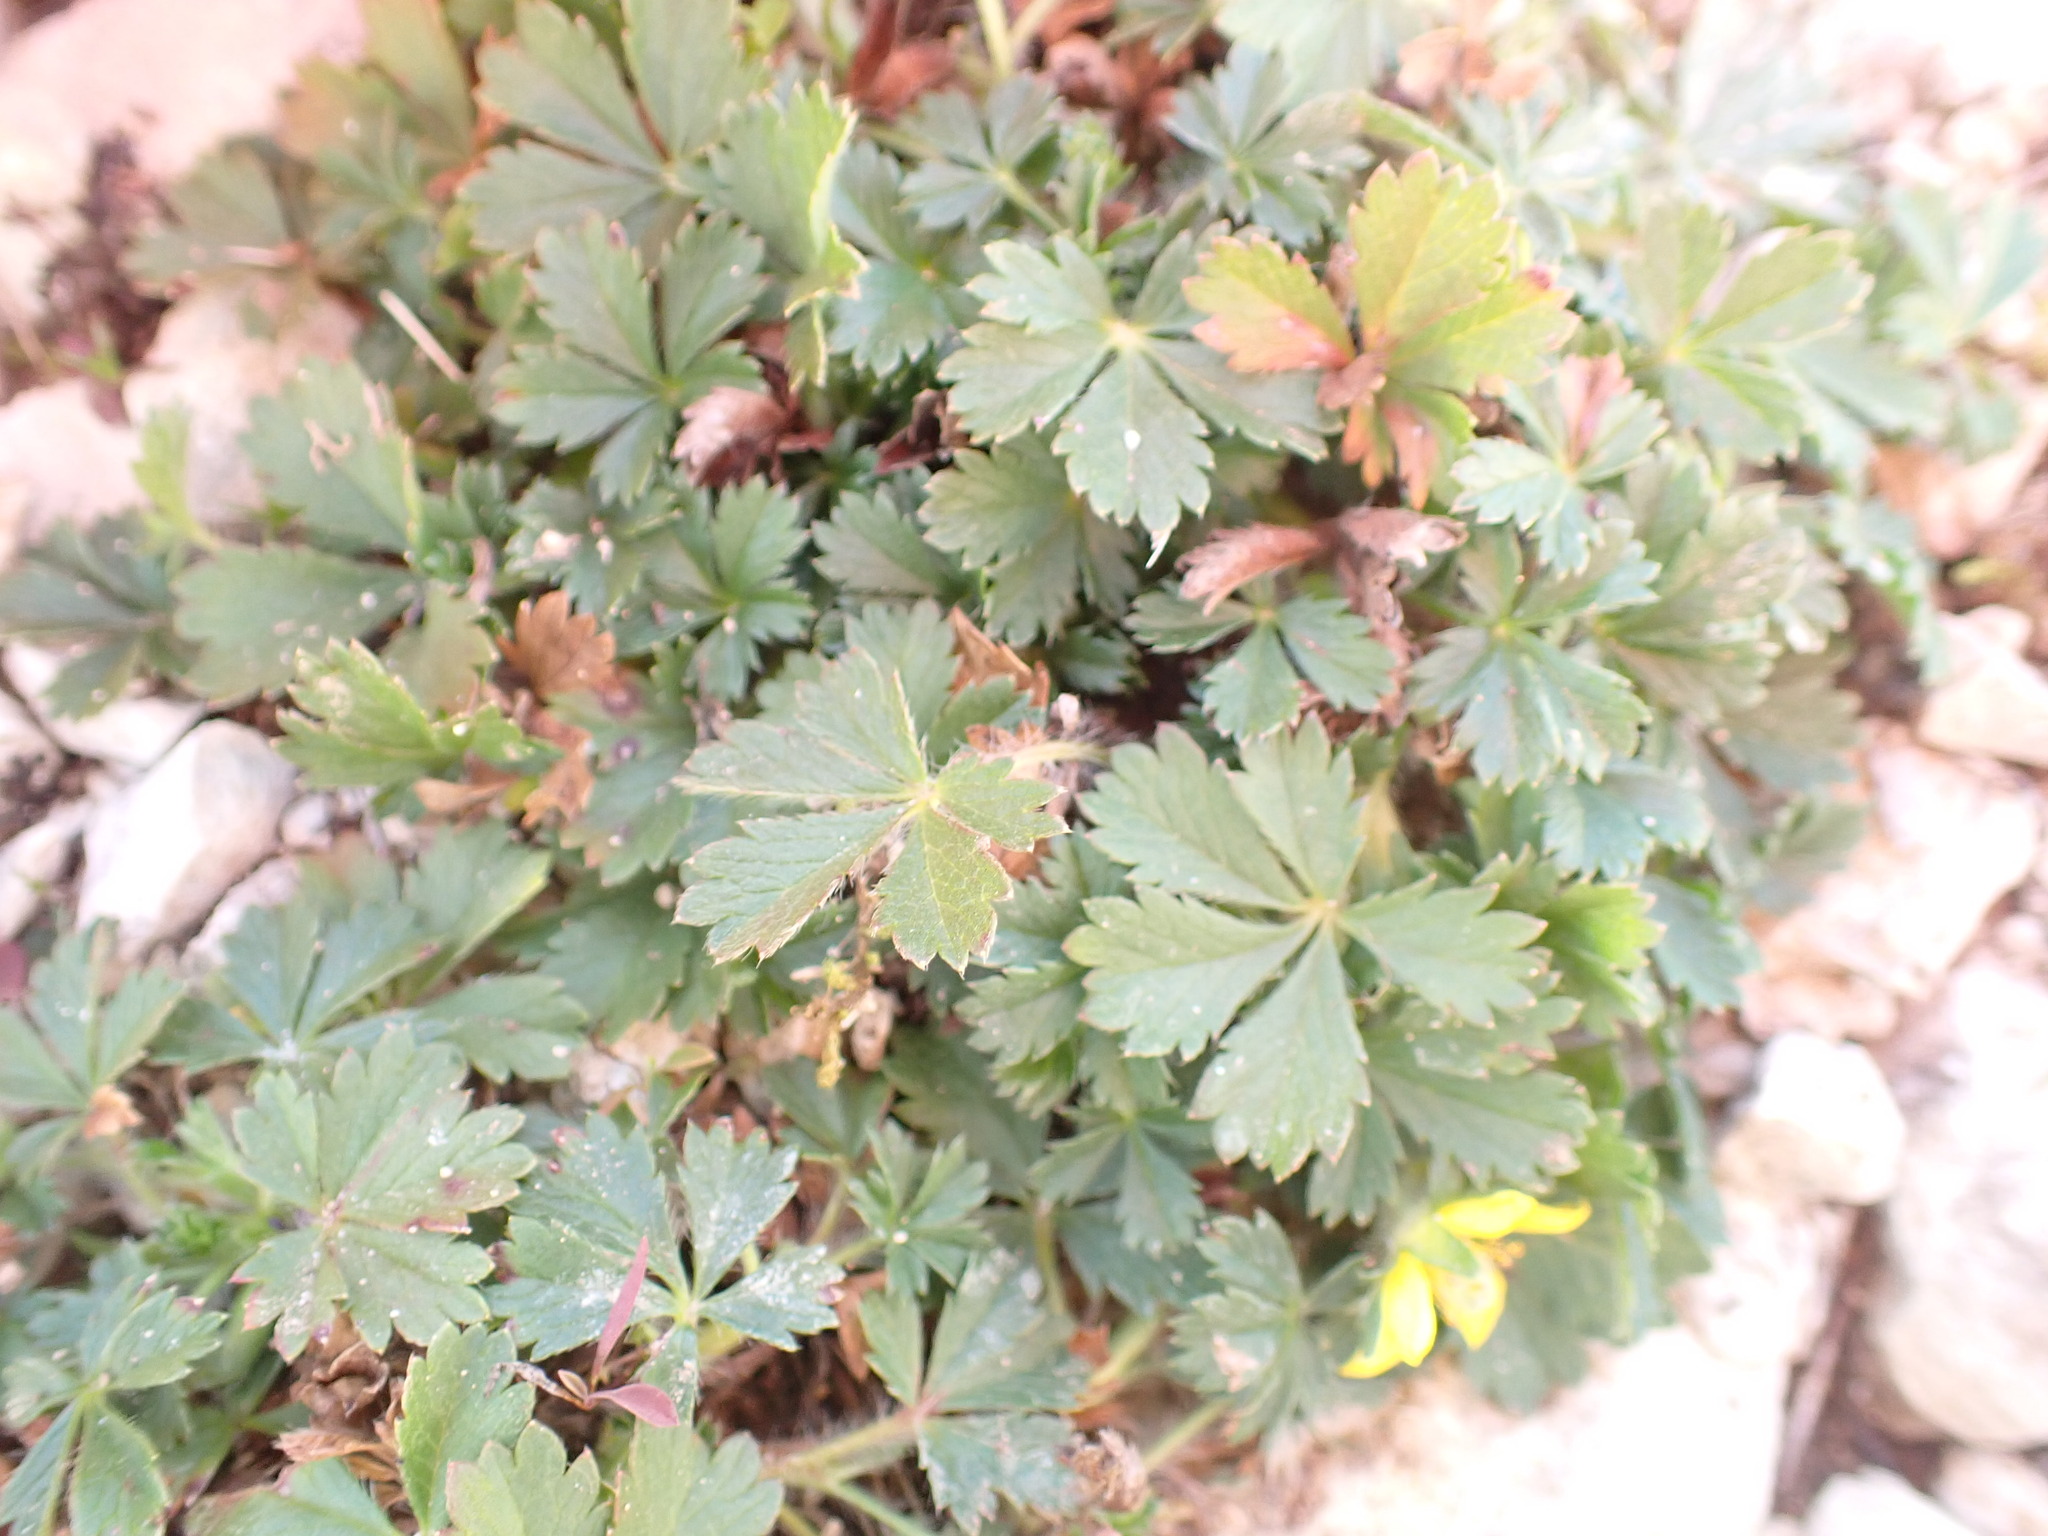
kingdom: Plantae
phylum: Tracheophyta
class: Magnoliopsida
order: Rosales
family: Rosaceae
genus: Potentilla
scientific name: Potentilla verna
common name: Spring cinquefoil
